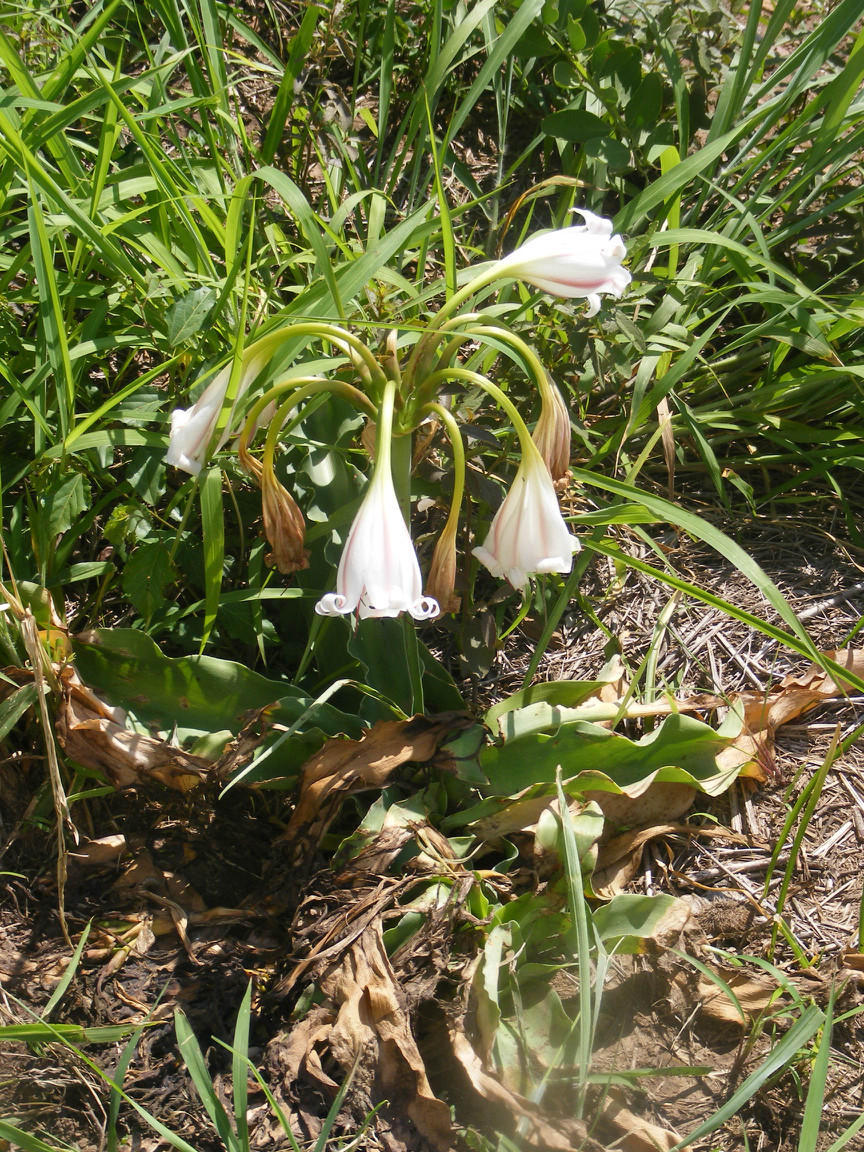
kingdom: Plantae
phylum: Tracheophyta
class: Liliopsida
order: Asparagales
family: Amaryllidaceae
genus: Crinum
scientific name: Crinum macowanii
